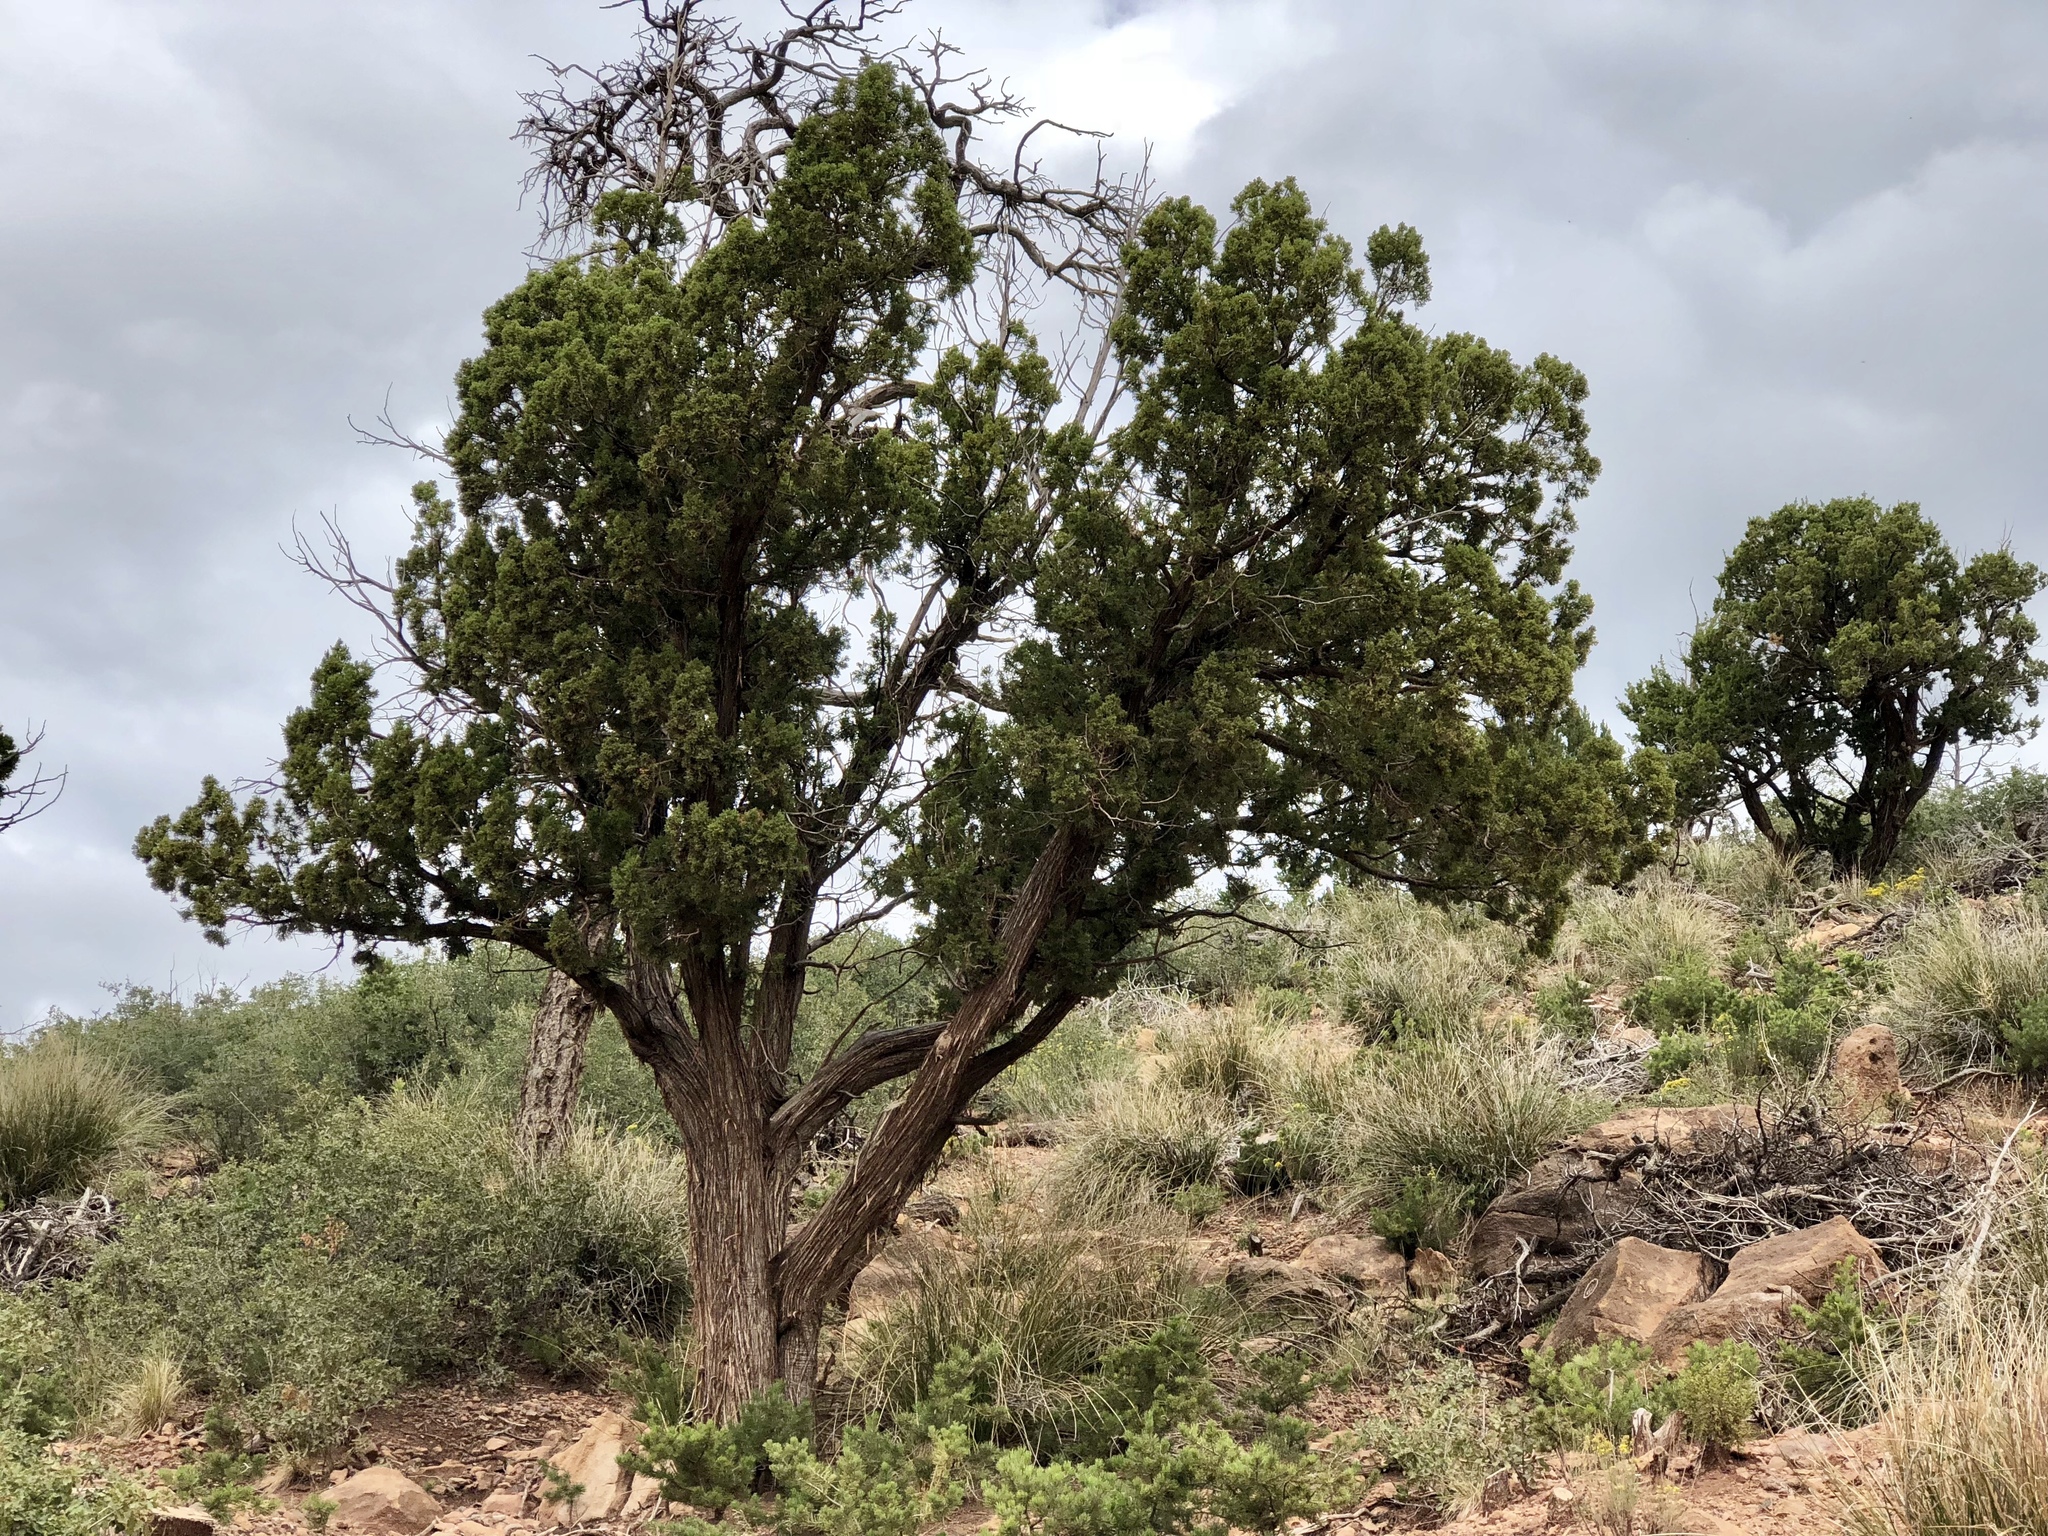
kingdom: Plantae
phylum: Tracheophyta
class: Pinopsida
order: Pinales
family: Cupressaceae
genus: Juniperus
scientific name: Juniperus deppeana
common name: Alligator juniper
